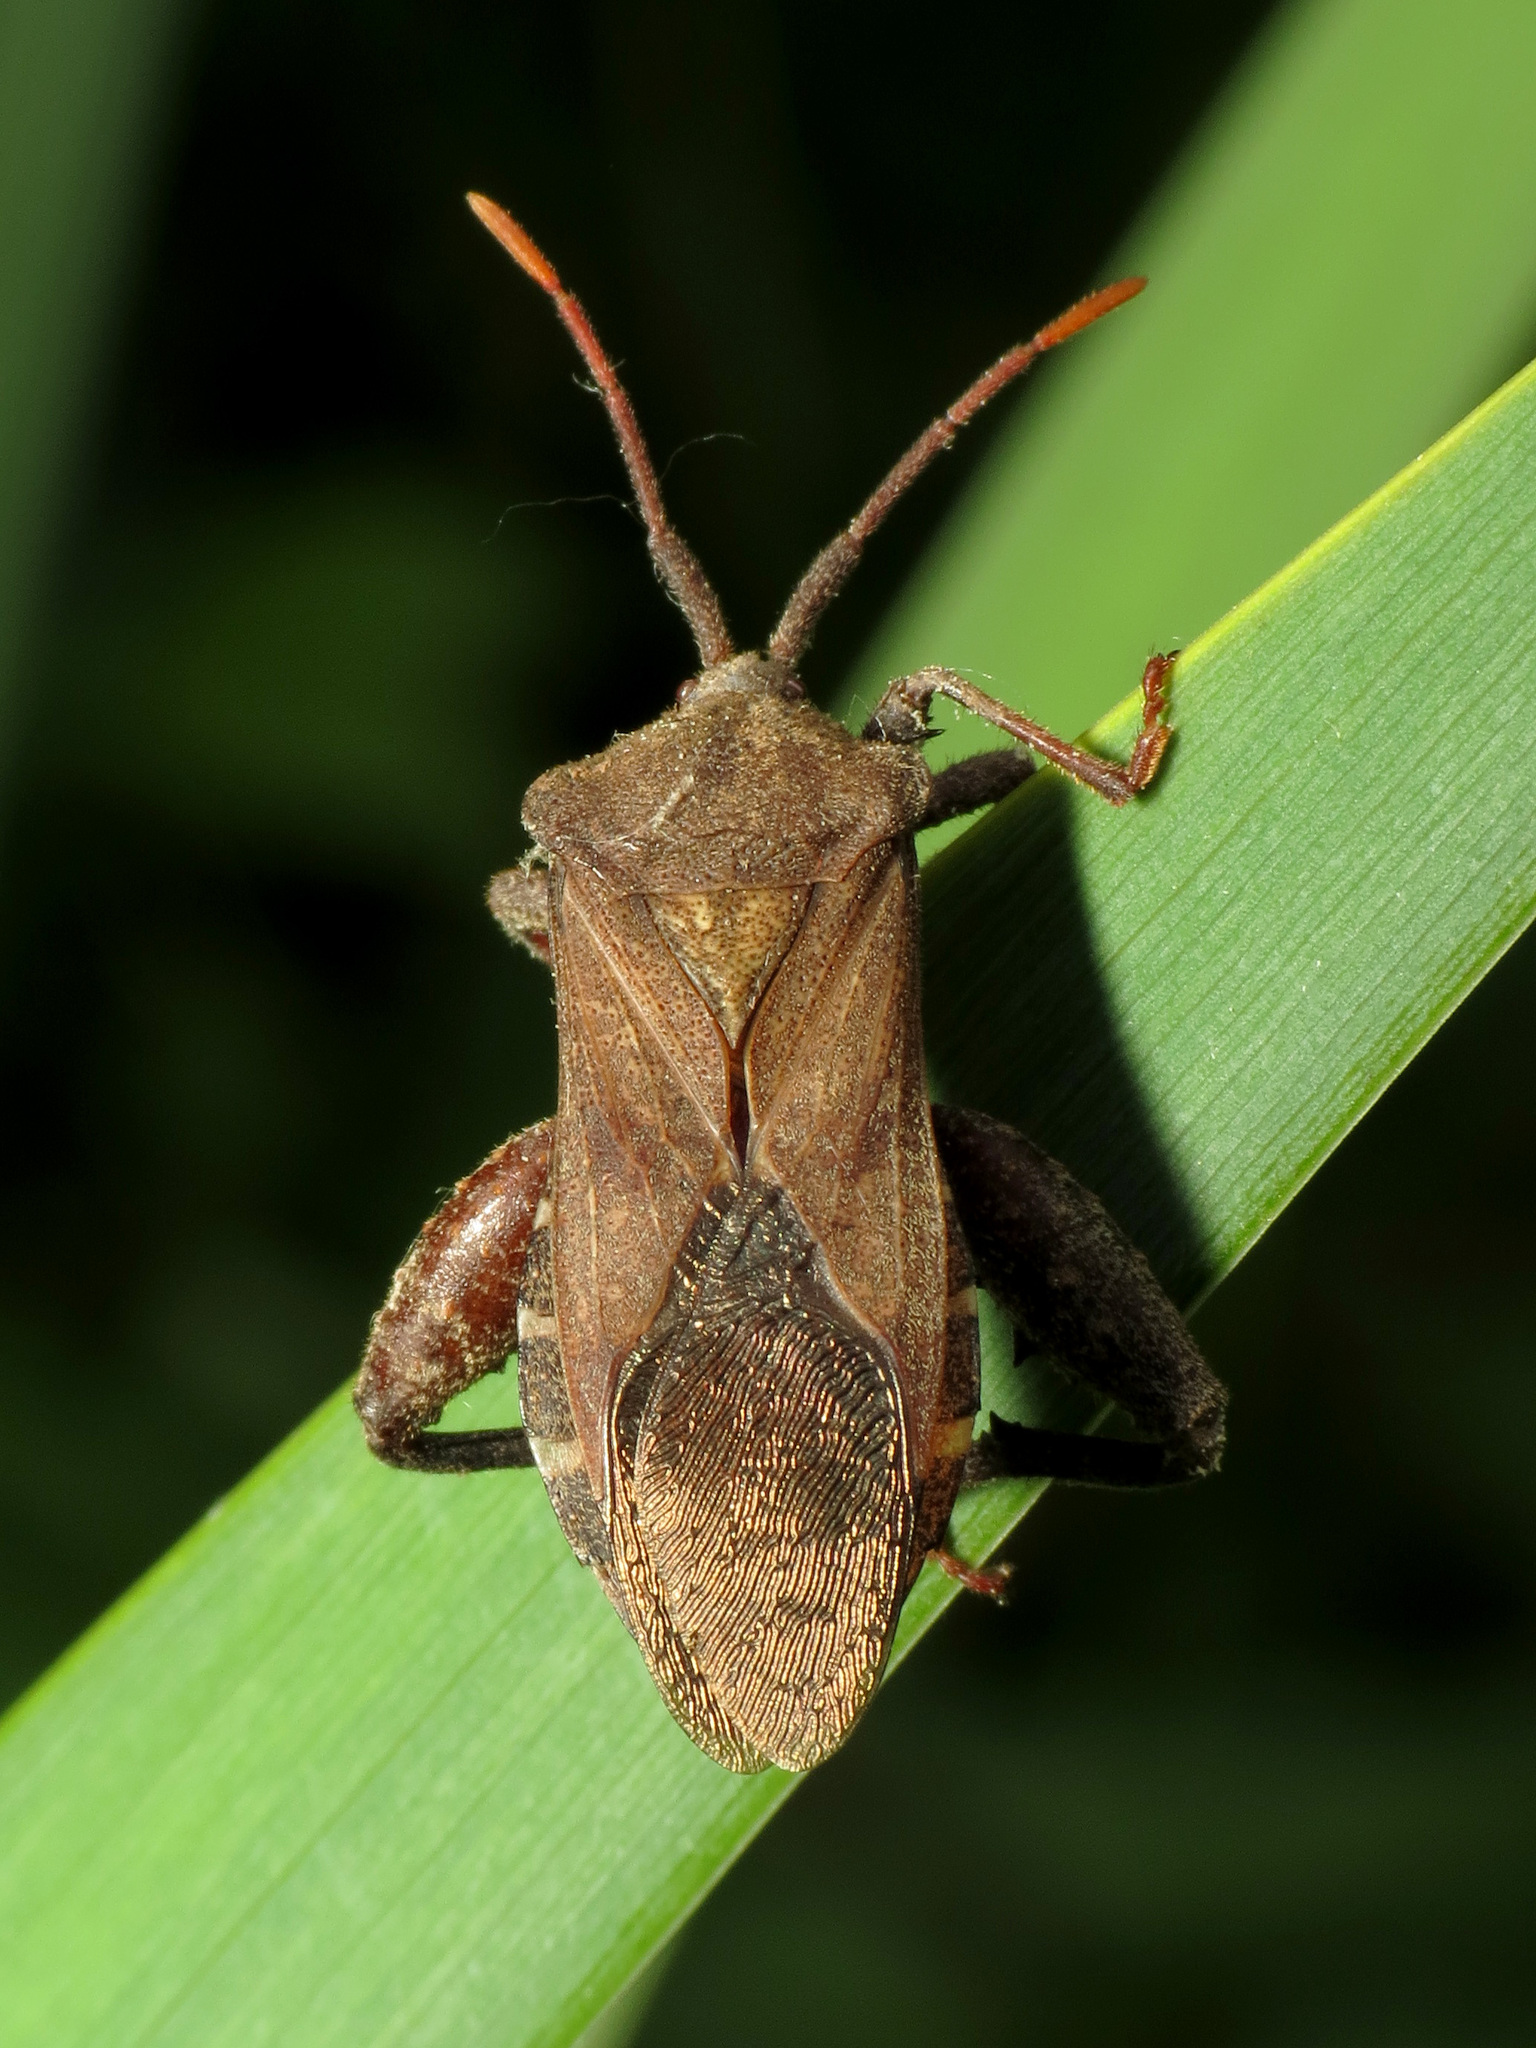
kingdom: Animalia
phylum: Arthropoda
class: Insecta
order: Hemiptera
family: Coreidae
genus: Piezogaster
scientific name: Piezogaster calcarator
